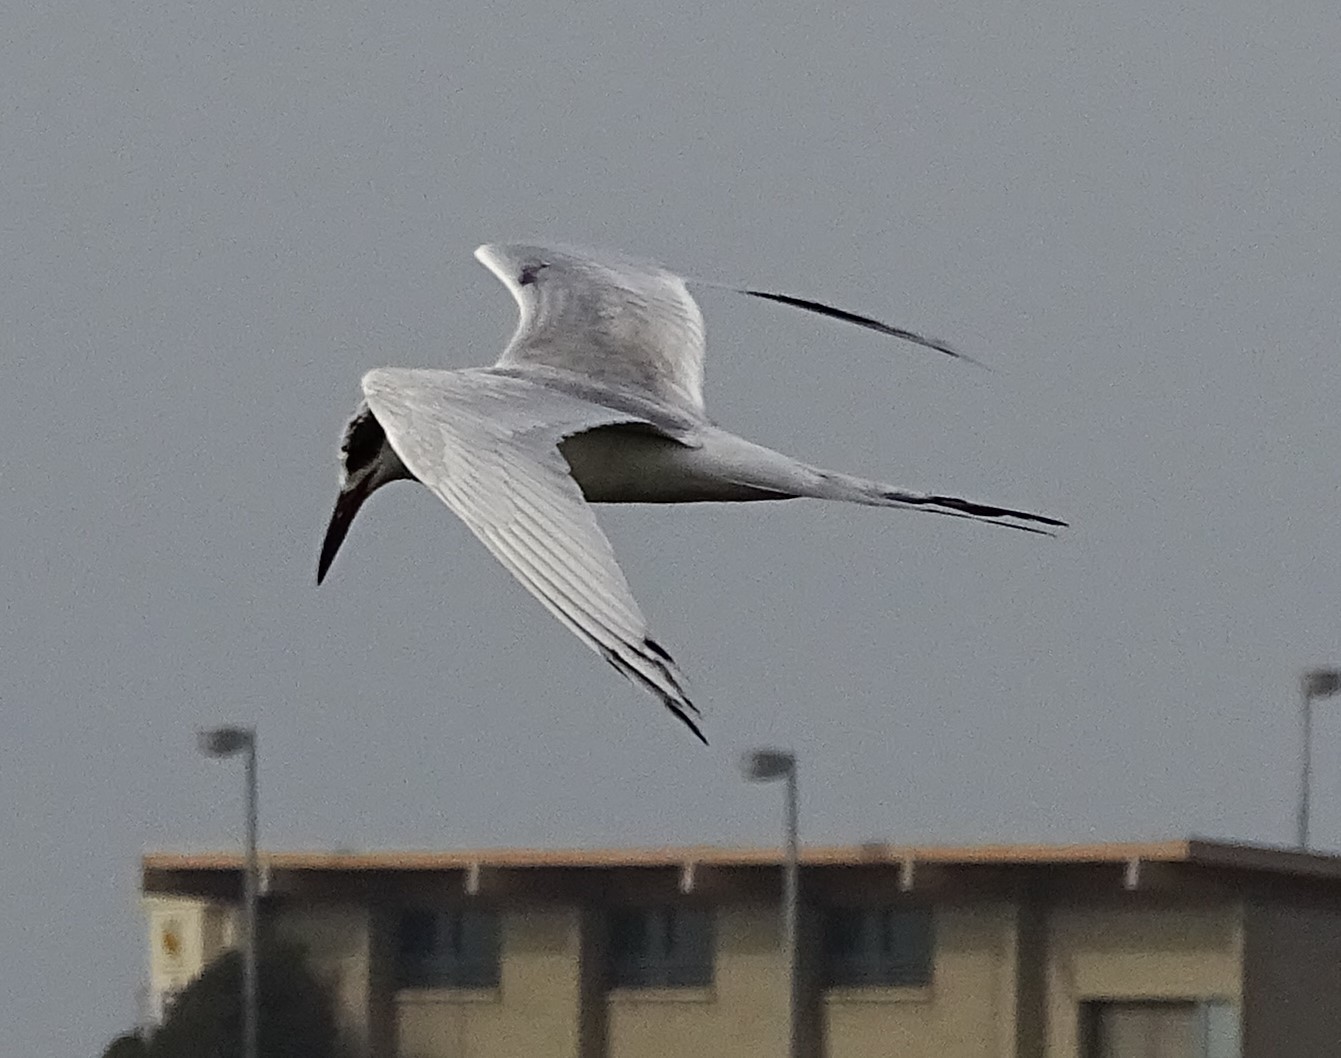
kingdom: Animalia
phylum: Chordata
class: Aves
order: Charadriiformes
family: Laridae
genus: Sterna
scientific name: Sterna forsteri
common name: Forster's tern
